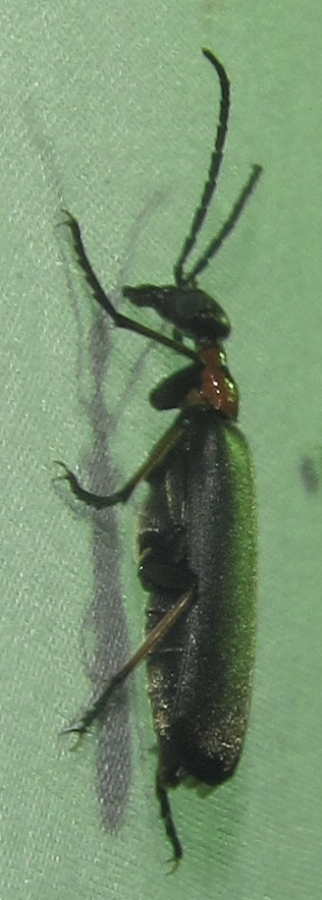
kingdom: Animalia
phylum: Arthropoda
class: Insecta
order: Coleoptera
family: Meloidae
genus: Lydomorphus
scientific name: Lydomorphus
